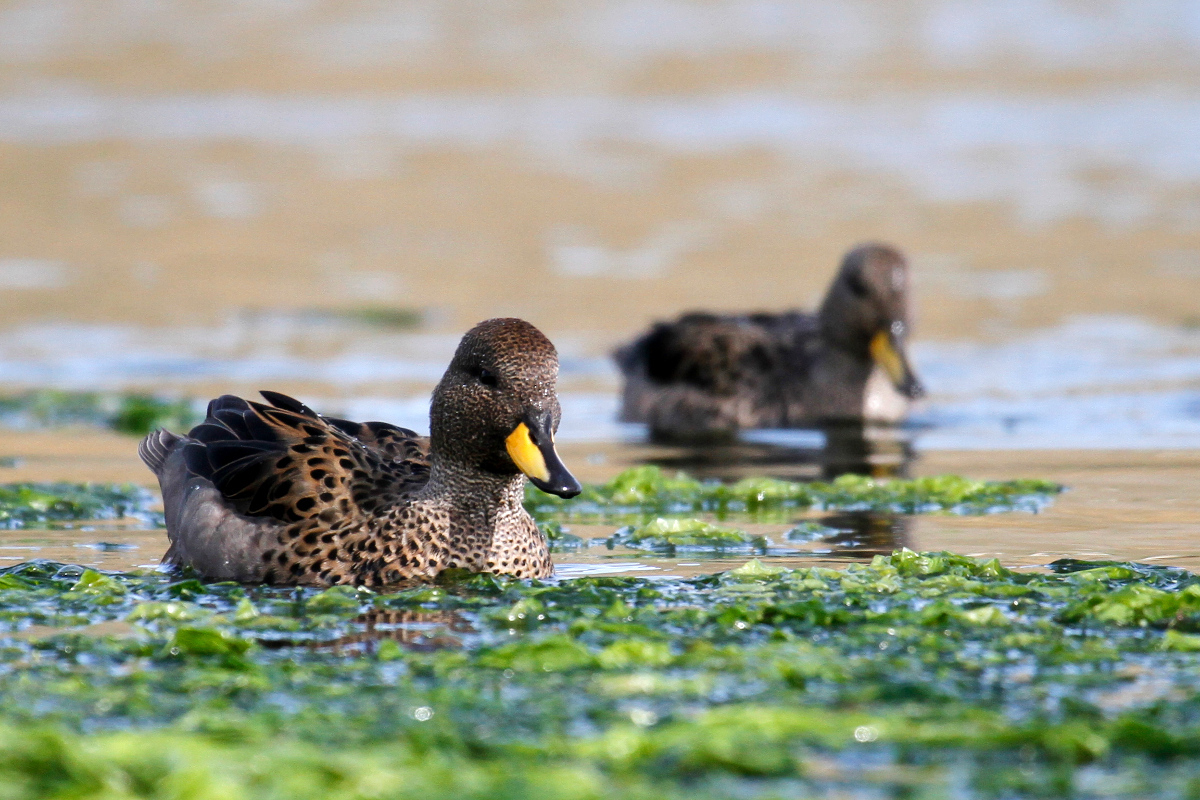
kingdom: Animalia
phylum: Chordata
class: Aves
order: Anseriformes
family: Anatidae
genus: Anas
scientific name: Anas flavirostris
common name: Yellow-billed teal
